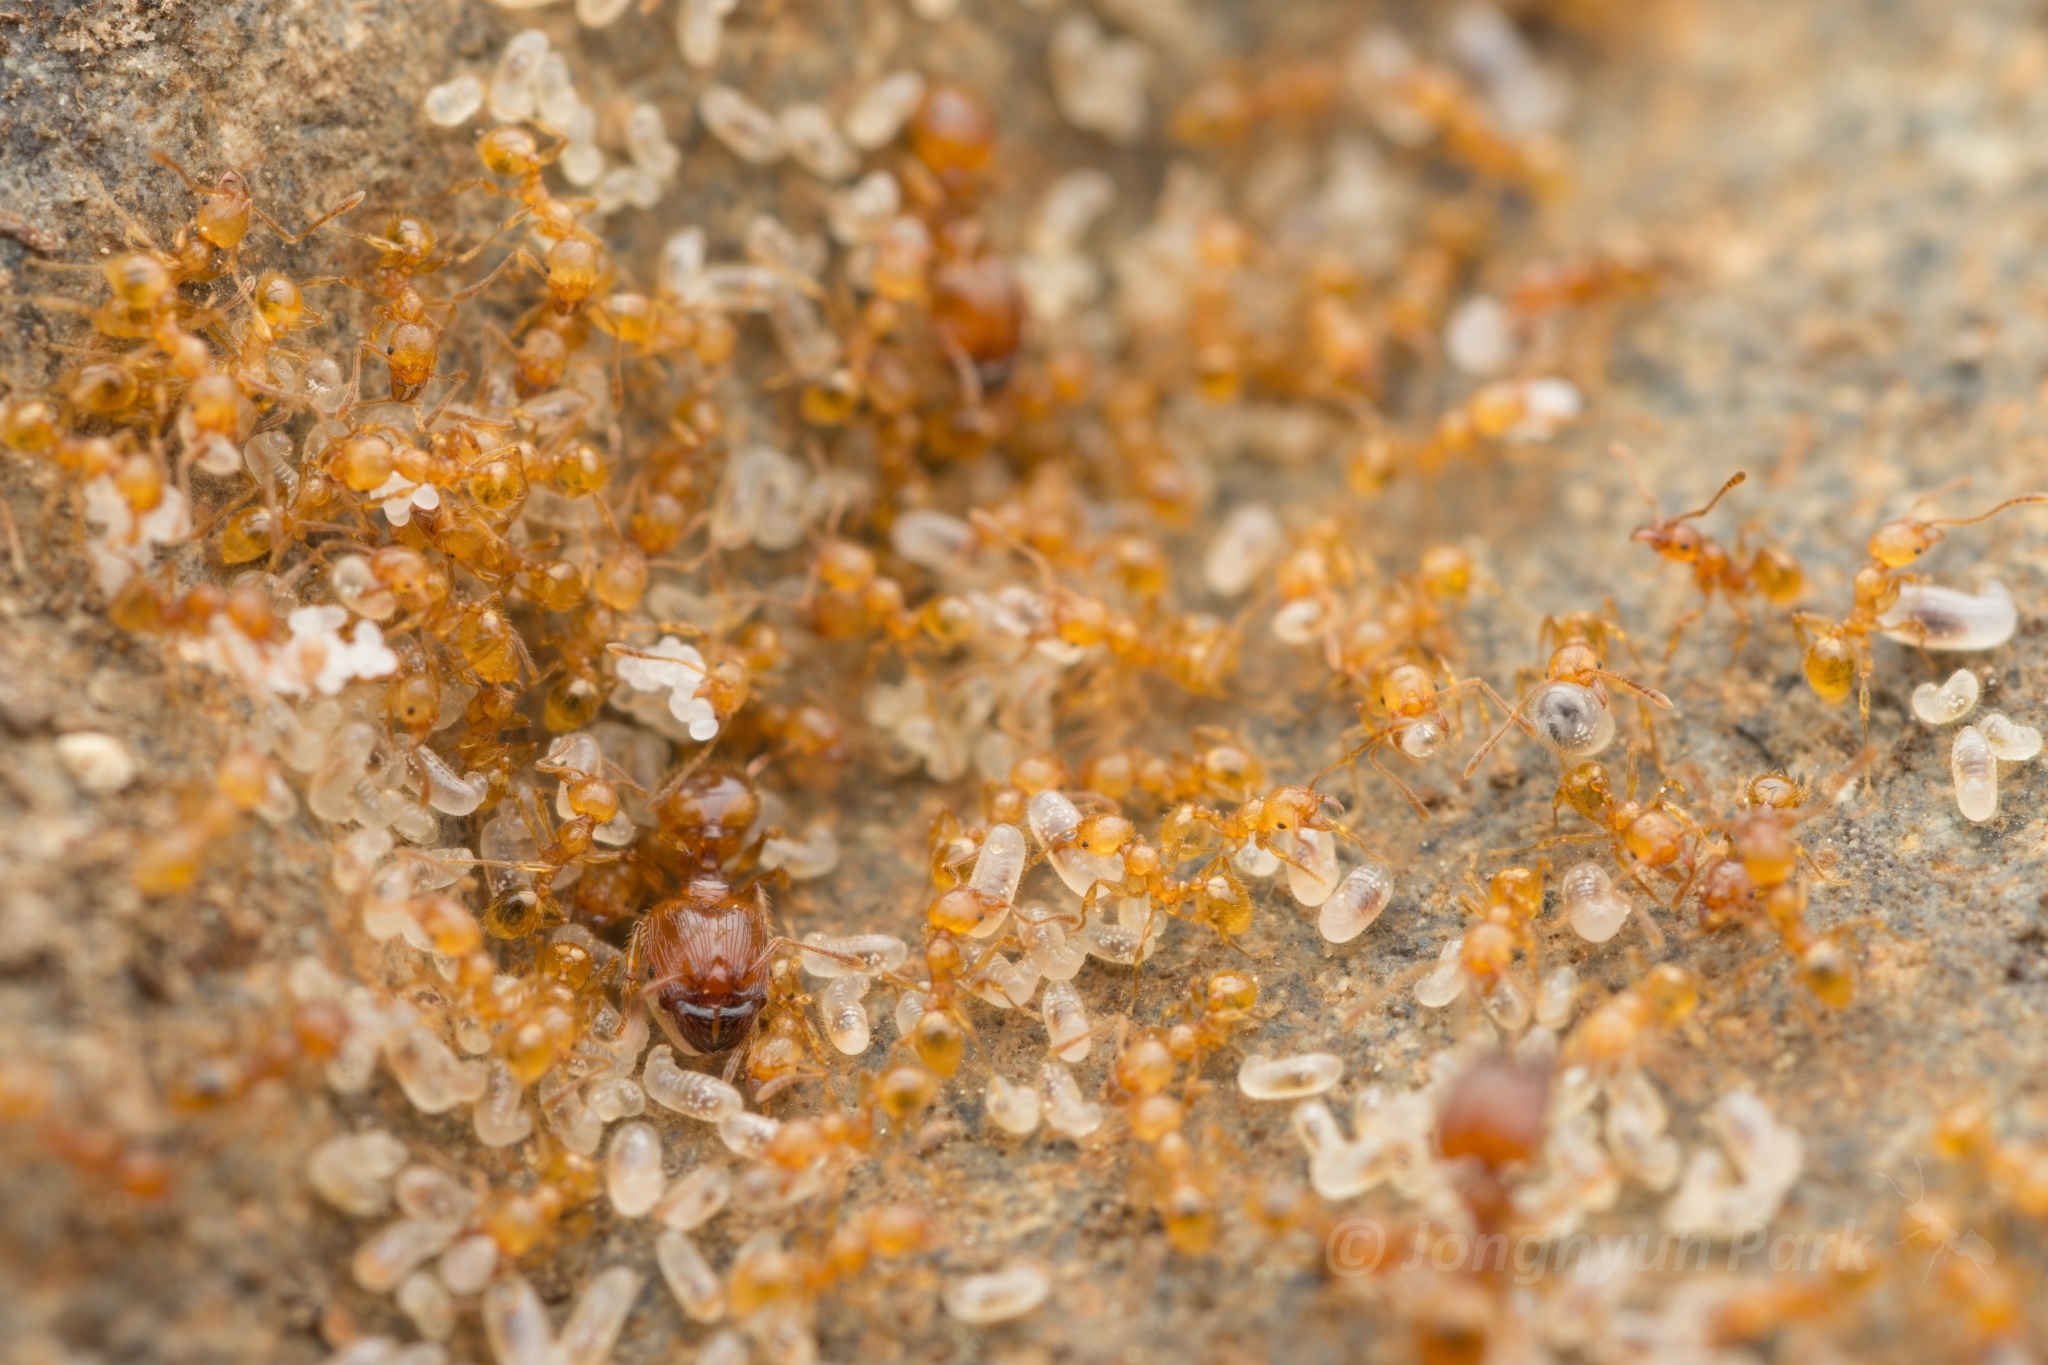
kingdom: Animalia
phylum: Arthropoda
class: Insecta
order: Hymenoptera
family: Formicidae
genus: Pheidole
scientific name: Pheidole fervida
